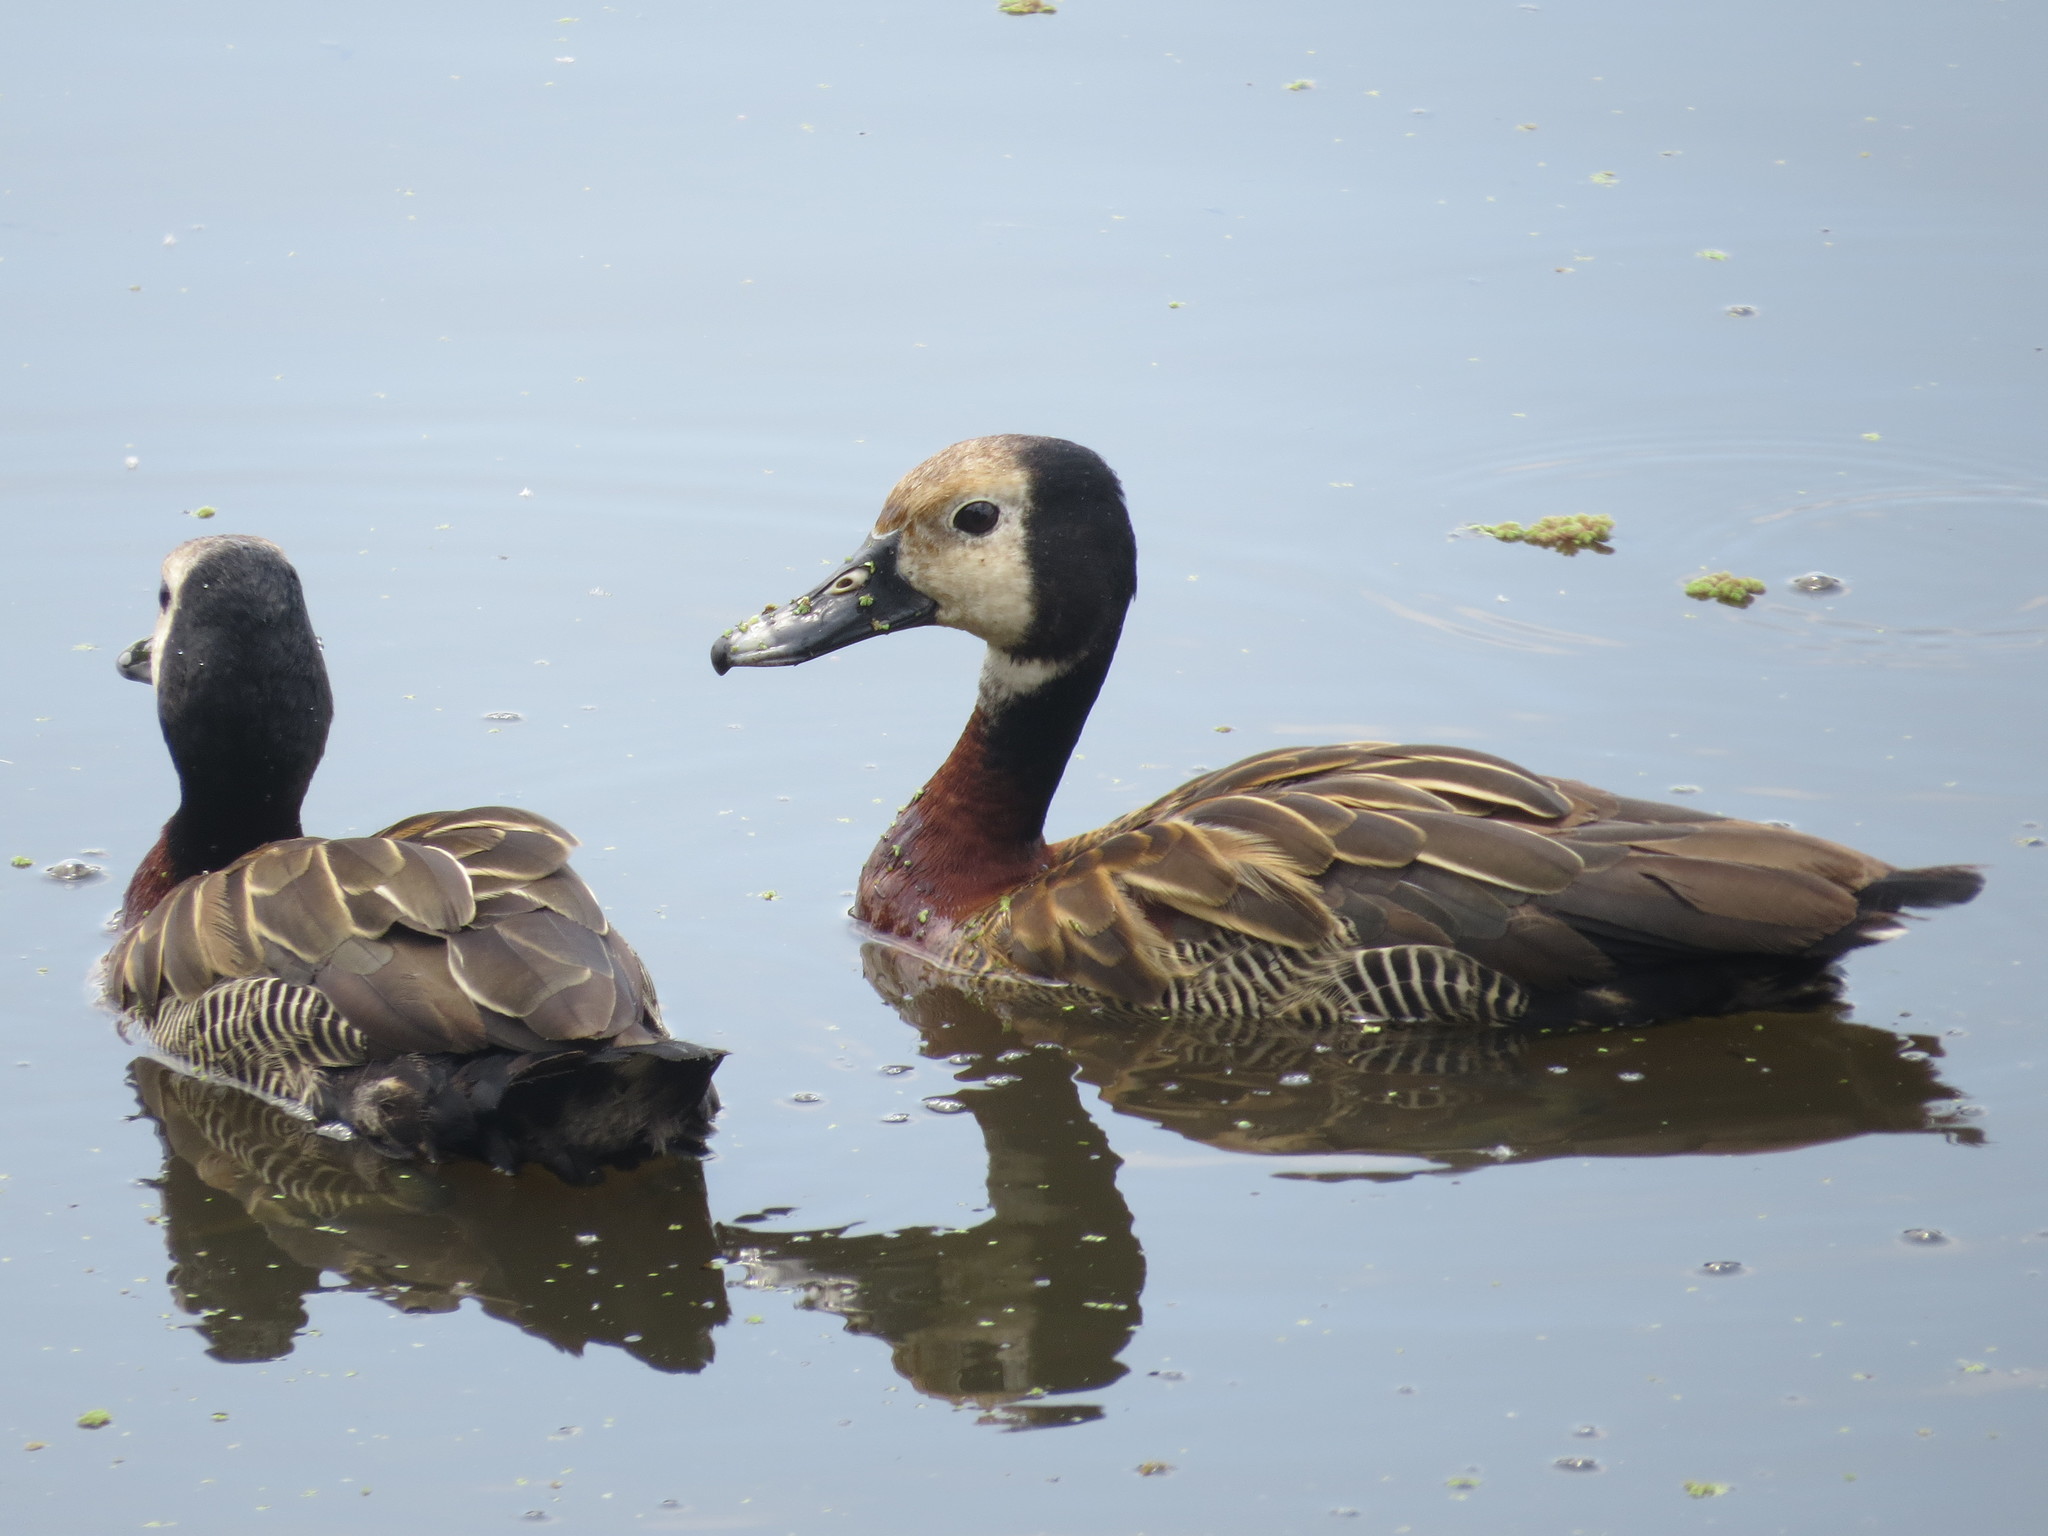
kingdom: Animalia
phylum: Chordata
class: Aves
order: Anseriformes
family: Anatidae
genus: Dendrocygna
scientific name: Dendrocygna viduata
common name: White-faced whistling duck
